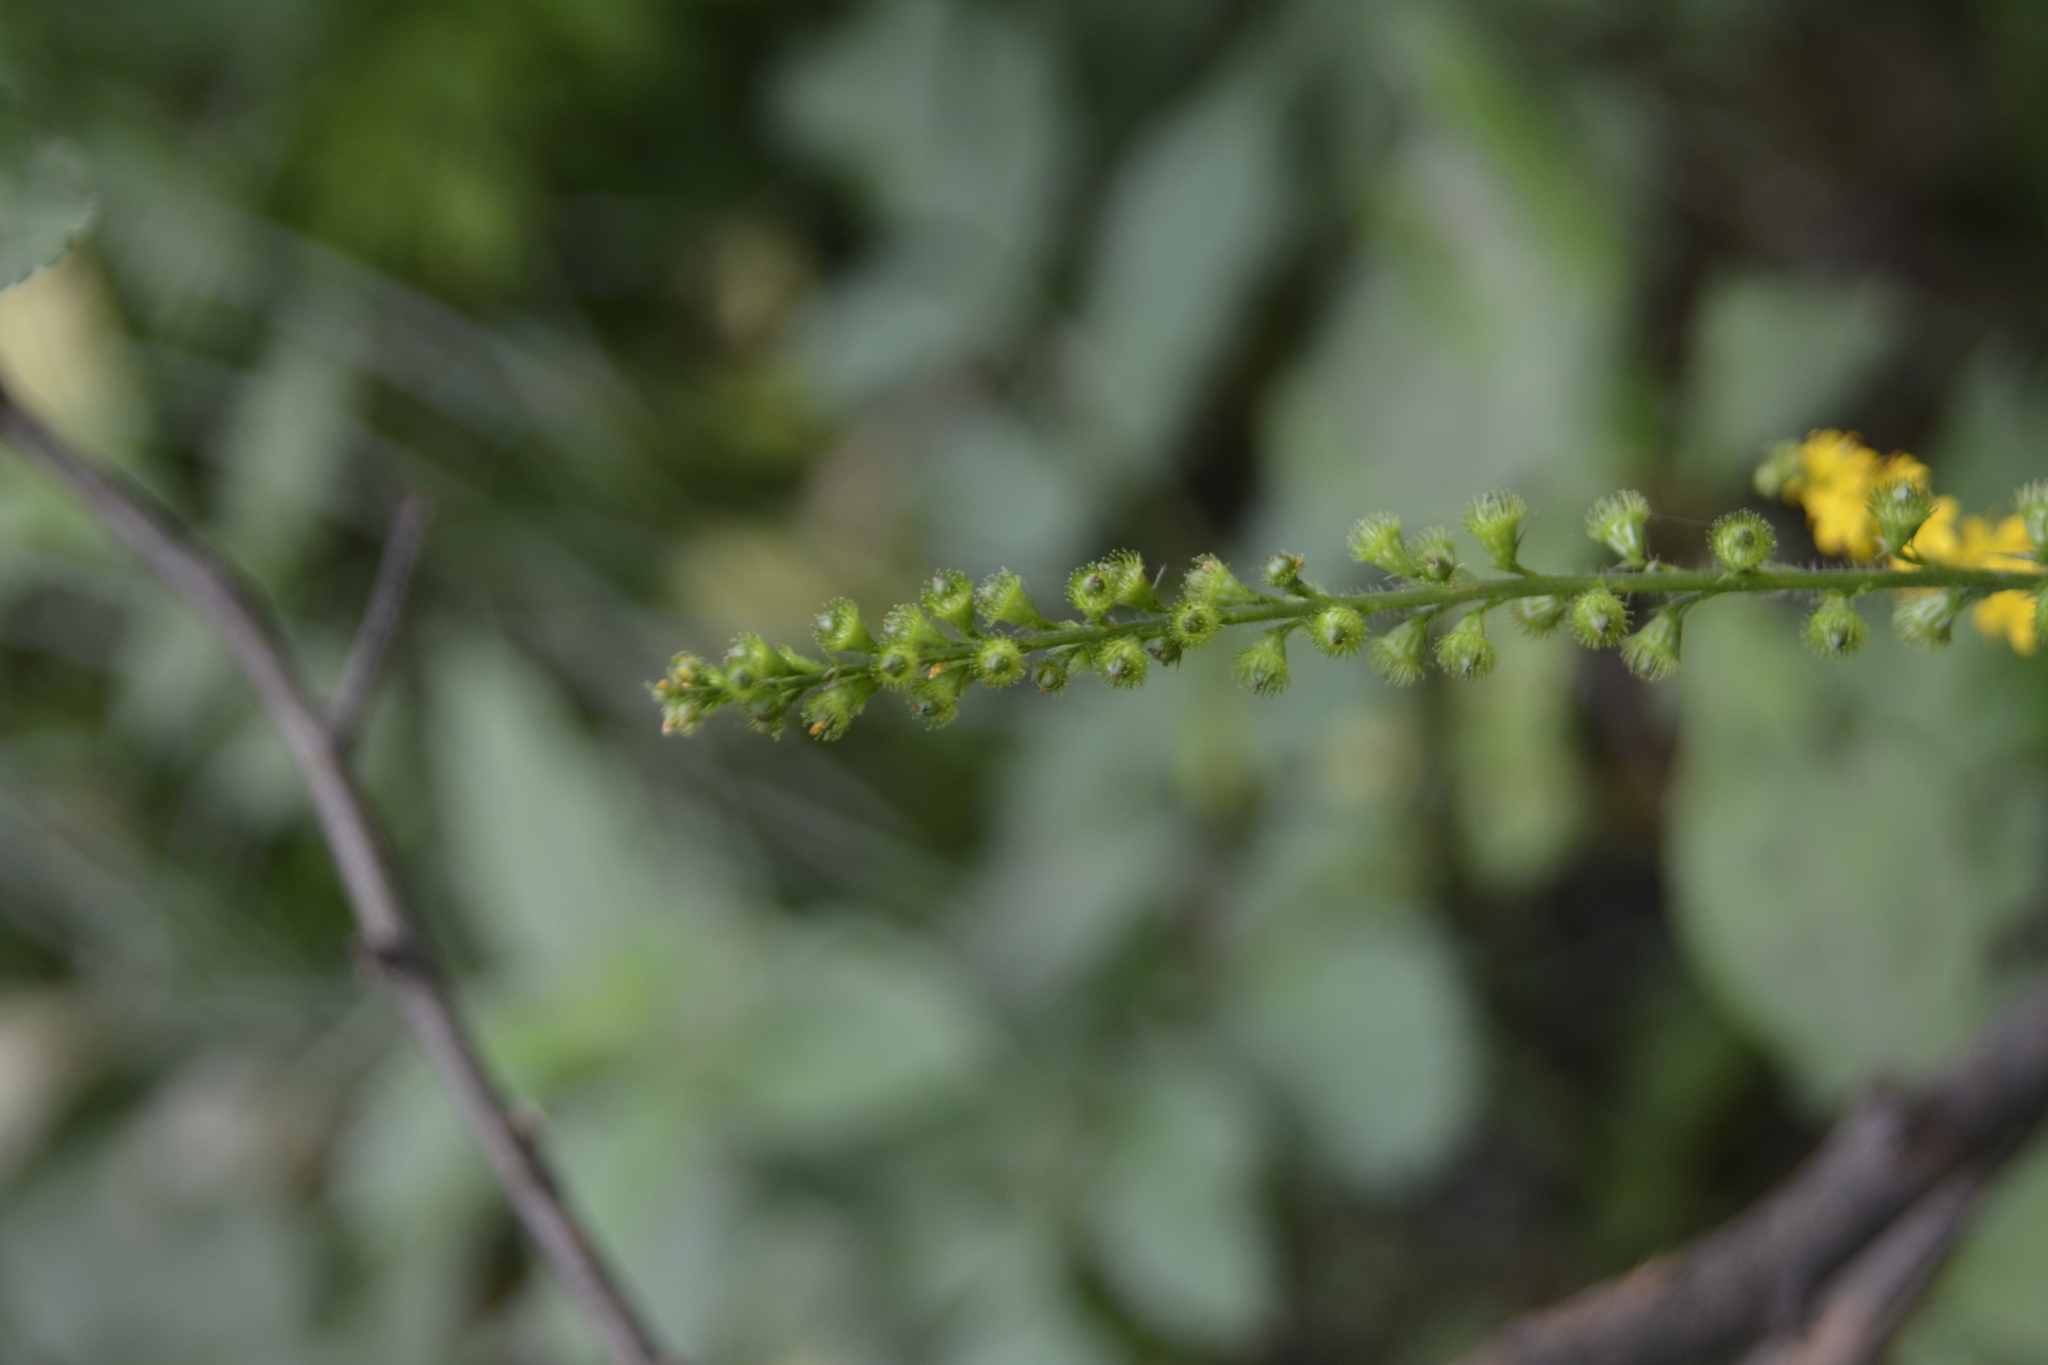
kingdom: Plantae
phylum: Tracheophyta
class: Magnoliopsida
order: Rosales
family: Rosaceae
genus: Agrimonia
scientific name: Agrimonia pilosa
